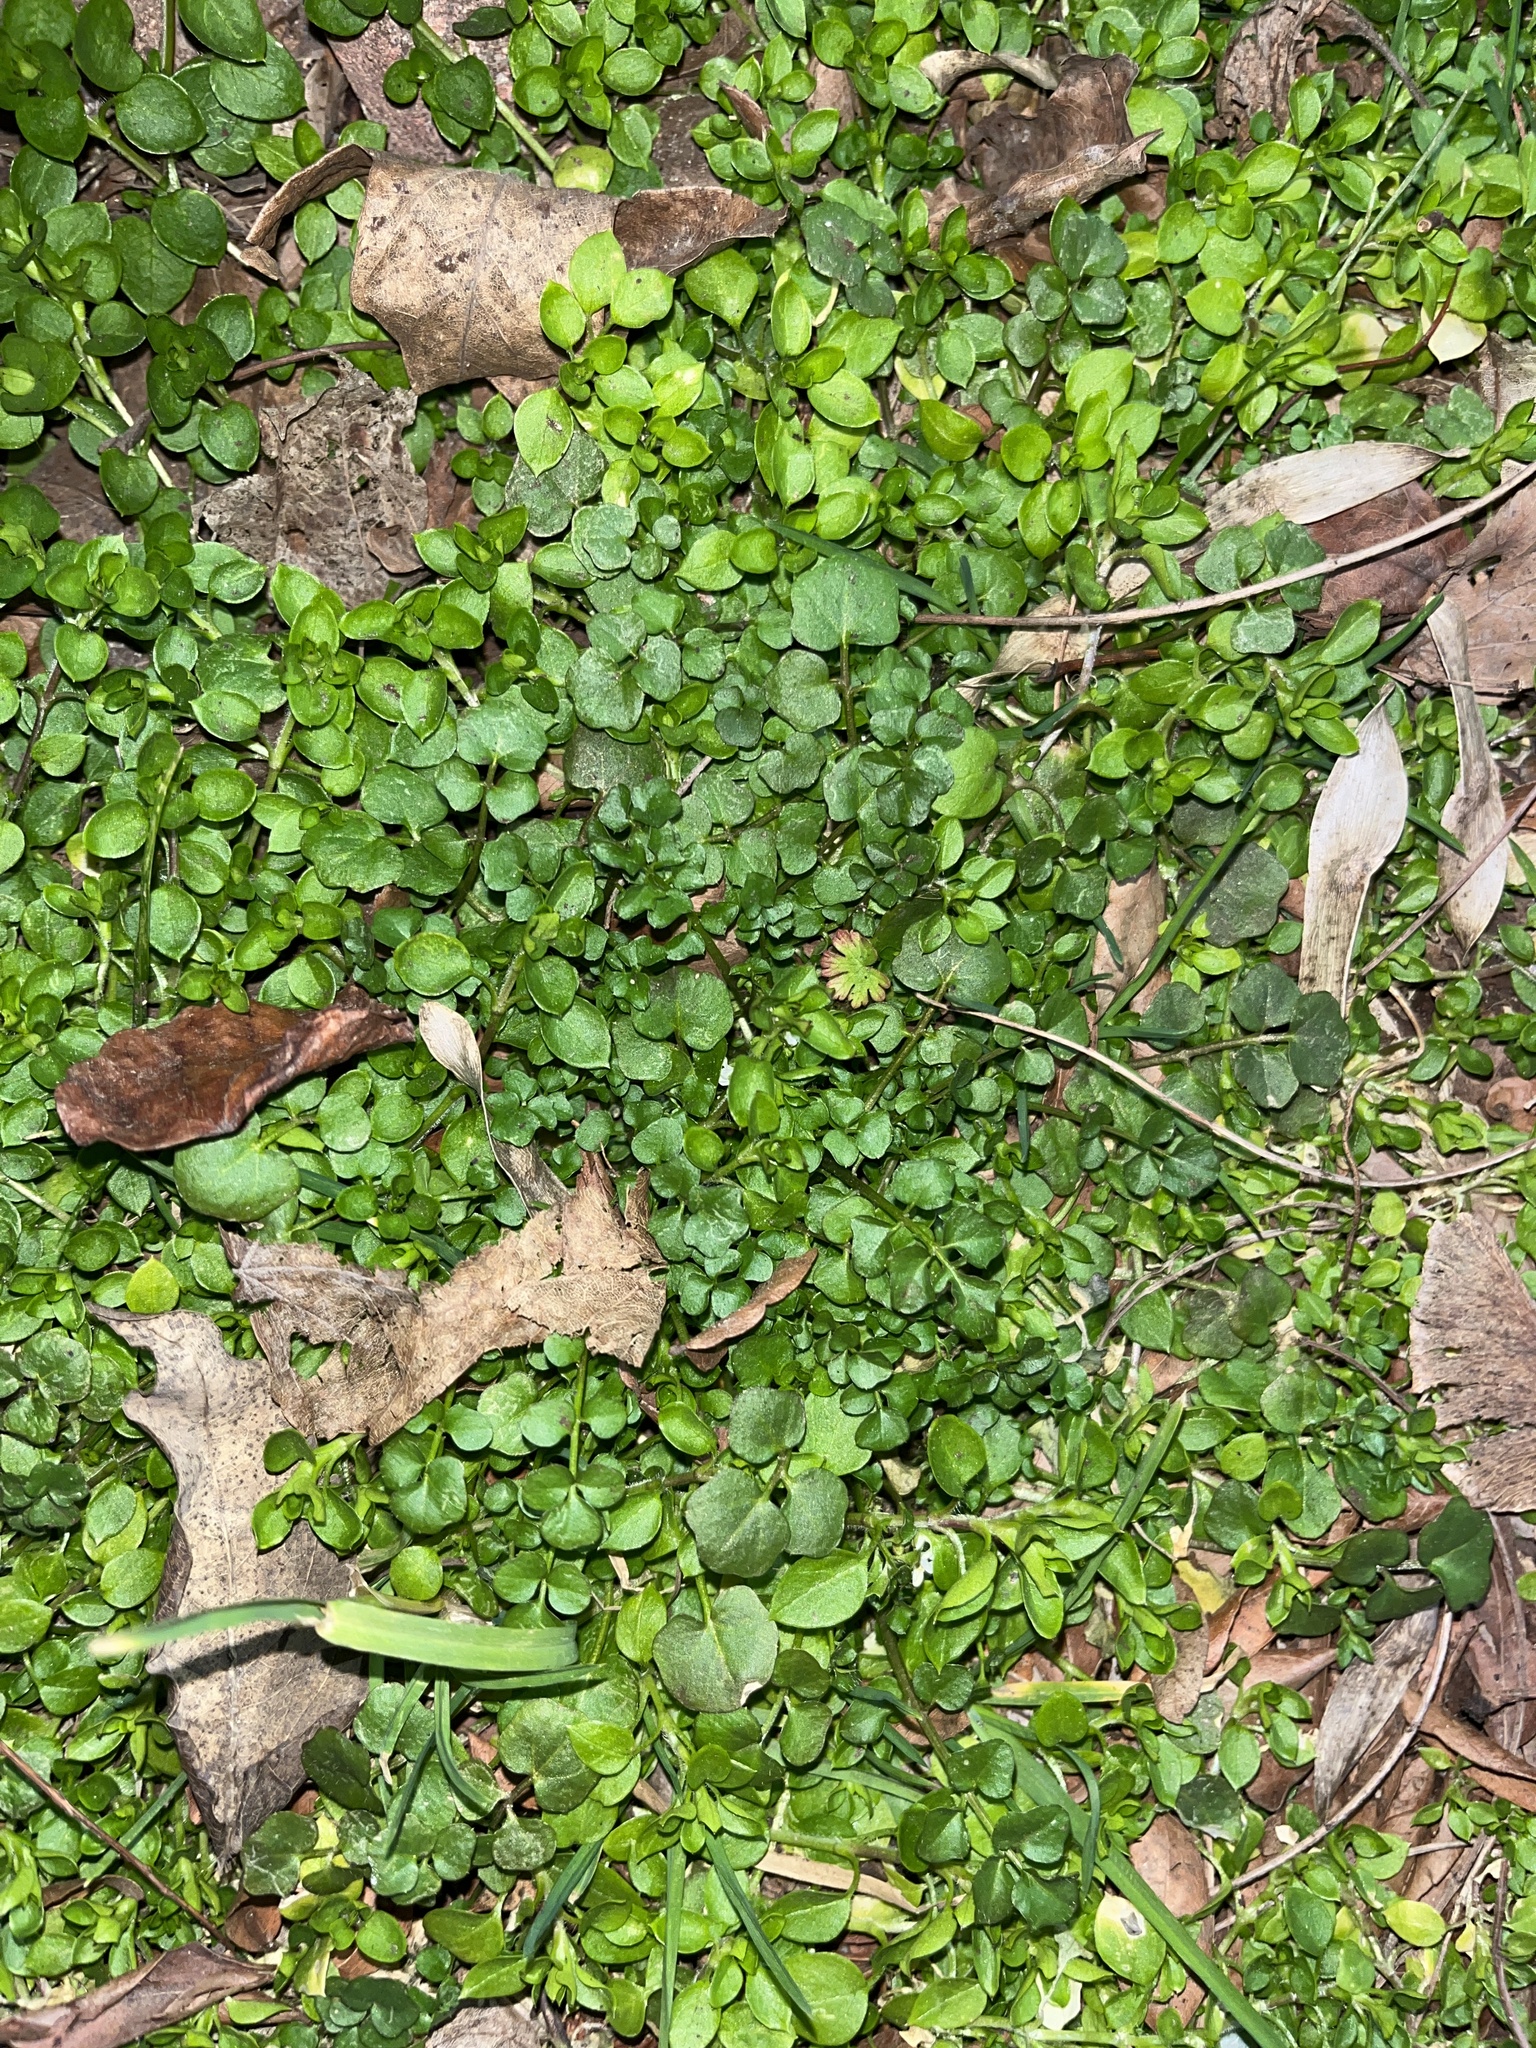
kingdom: Plantae
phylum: Tracheophyta
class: Magnoliopsida
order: Caryophyllales
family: Caryophyllaceae
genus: Stellaria
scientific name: Stellaria media
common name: Common chickweed
